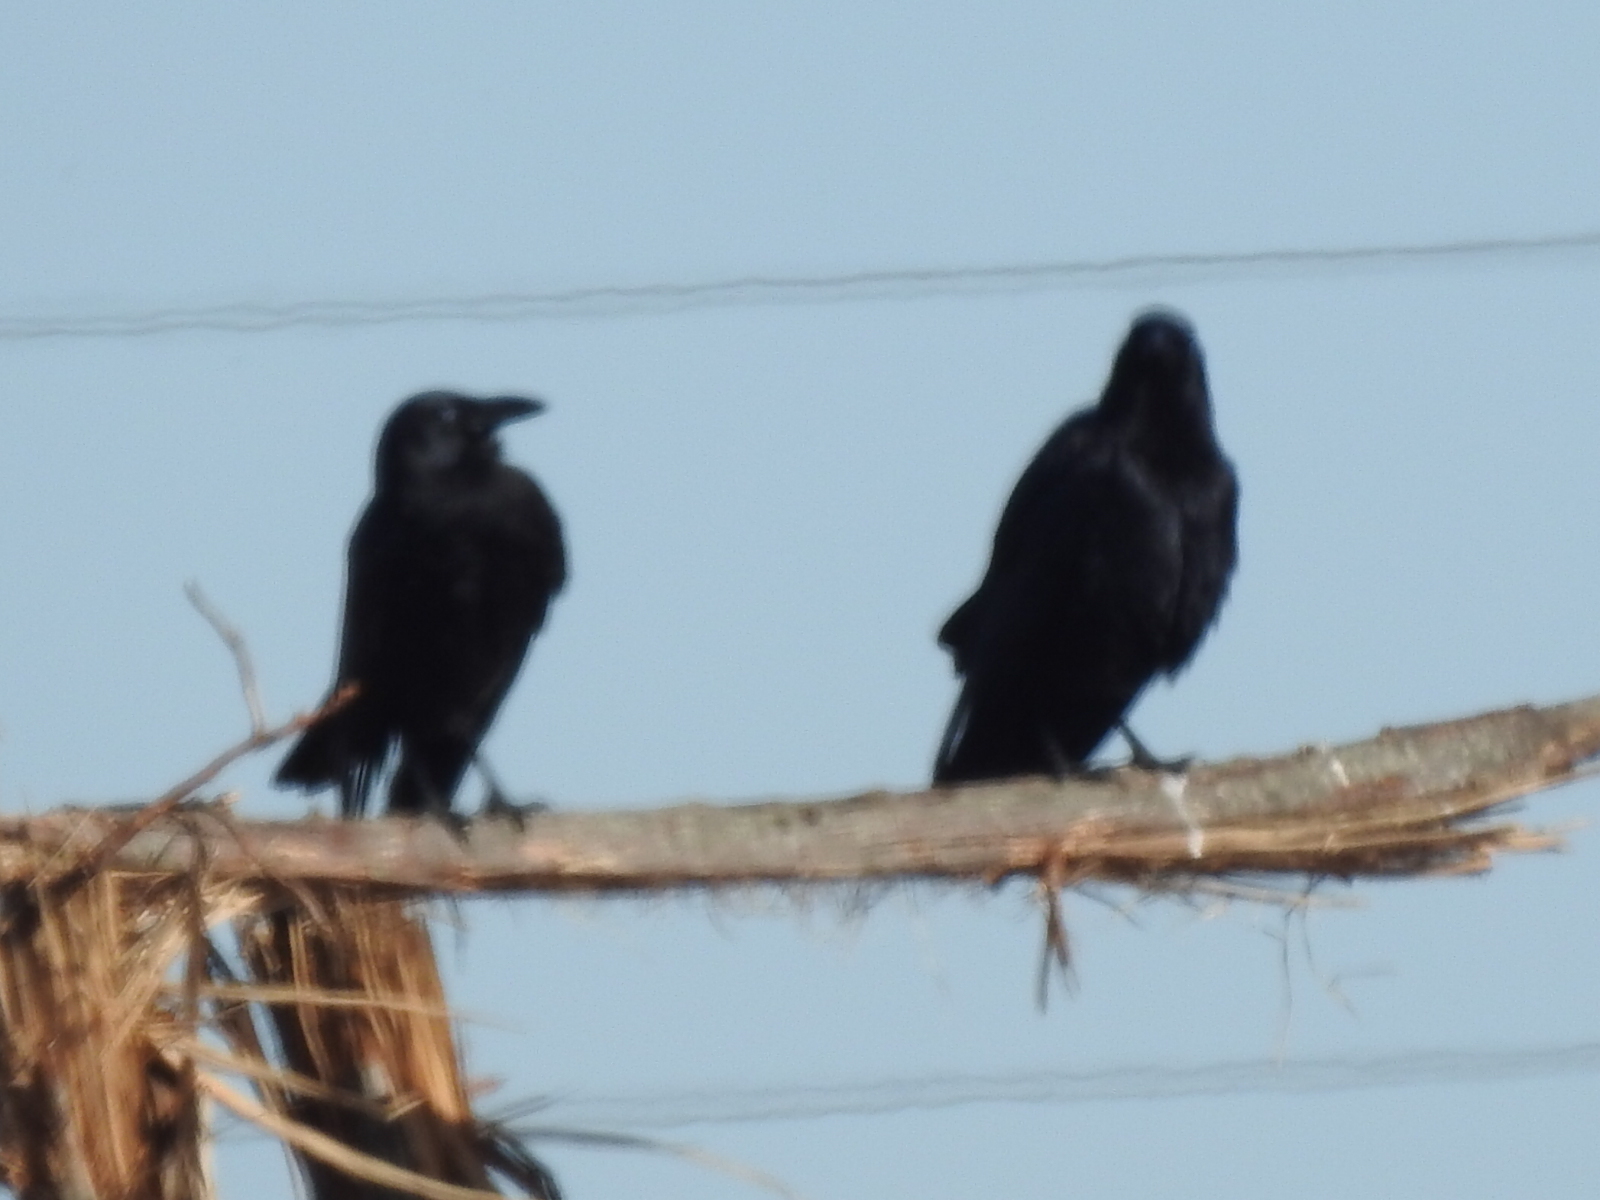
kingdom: Animalia
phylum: Chordata
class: Aves
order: Passeriformes
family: Corvidae
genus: Corvus
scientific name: Corvus brachyrhynchos
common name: American crow
